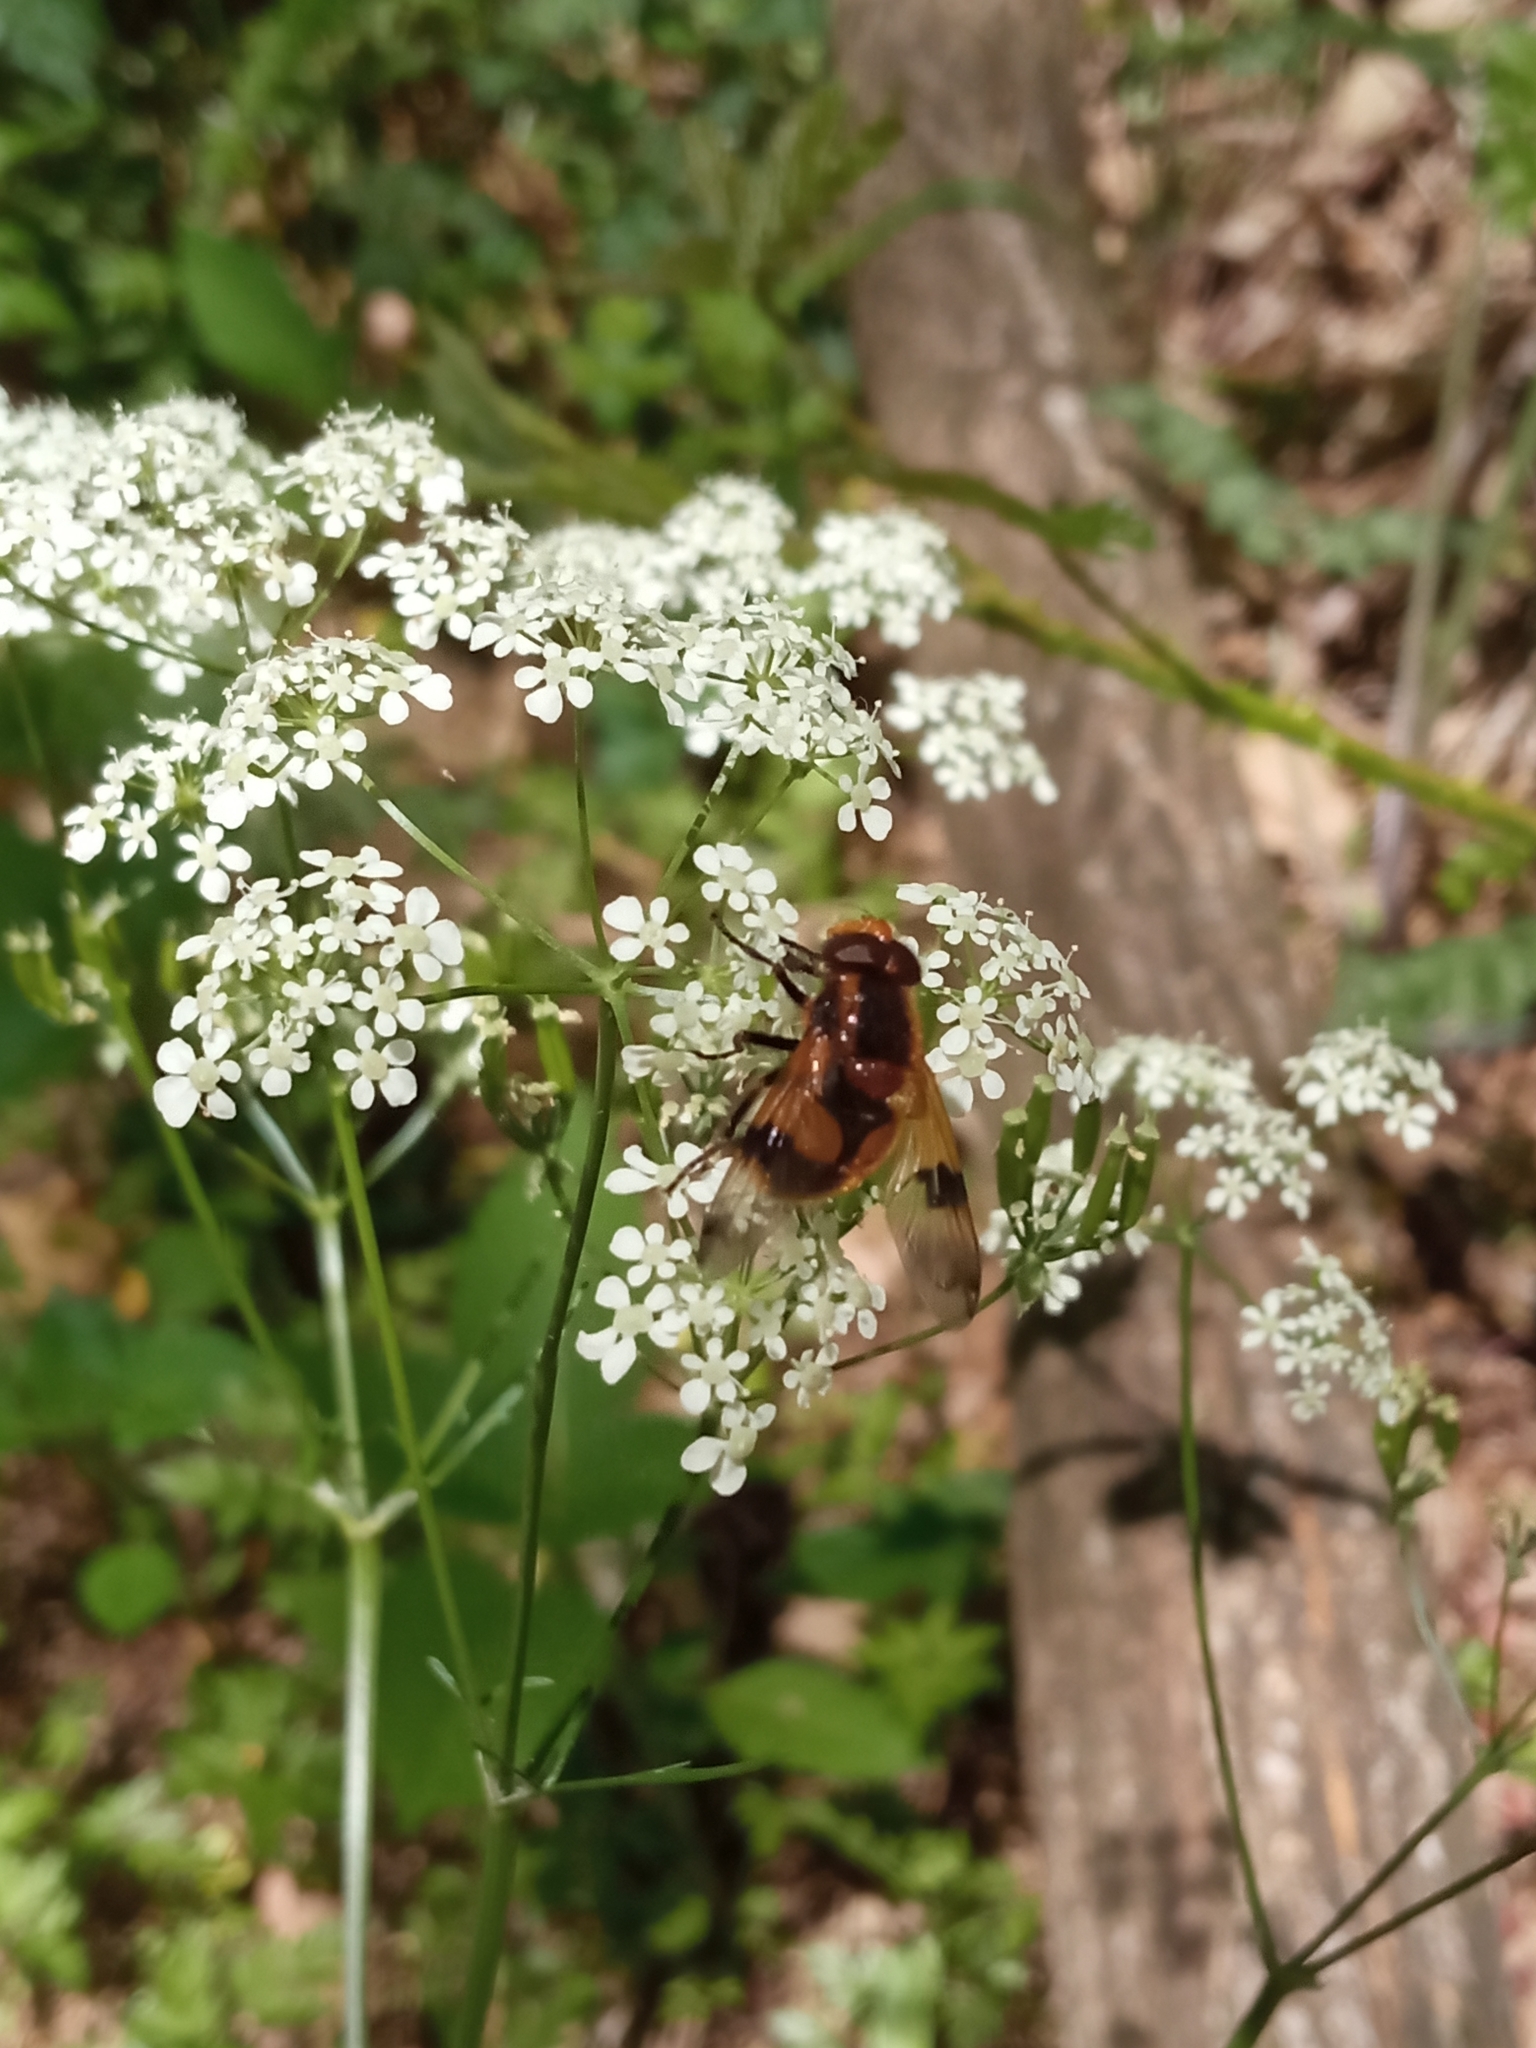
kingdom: Animalia
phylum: Arthropoda
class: Insecta
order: Diptera
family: Syrphidae
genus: Volucella
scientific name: Volucella inflata
